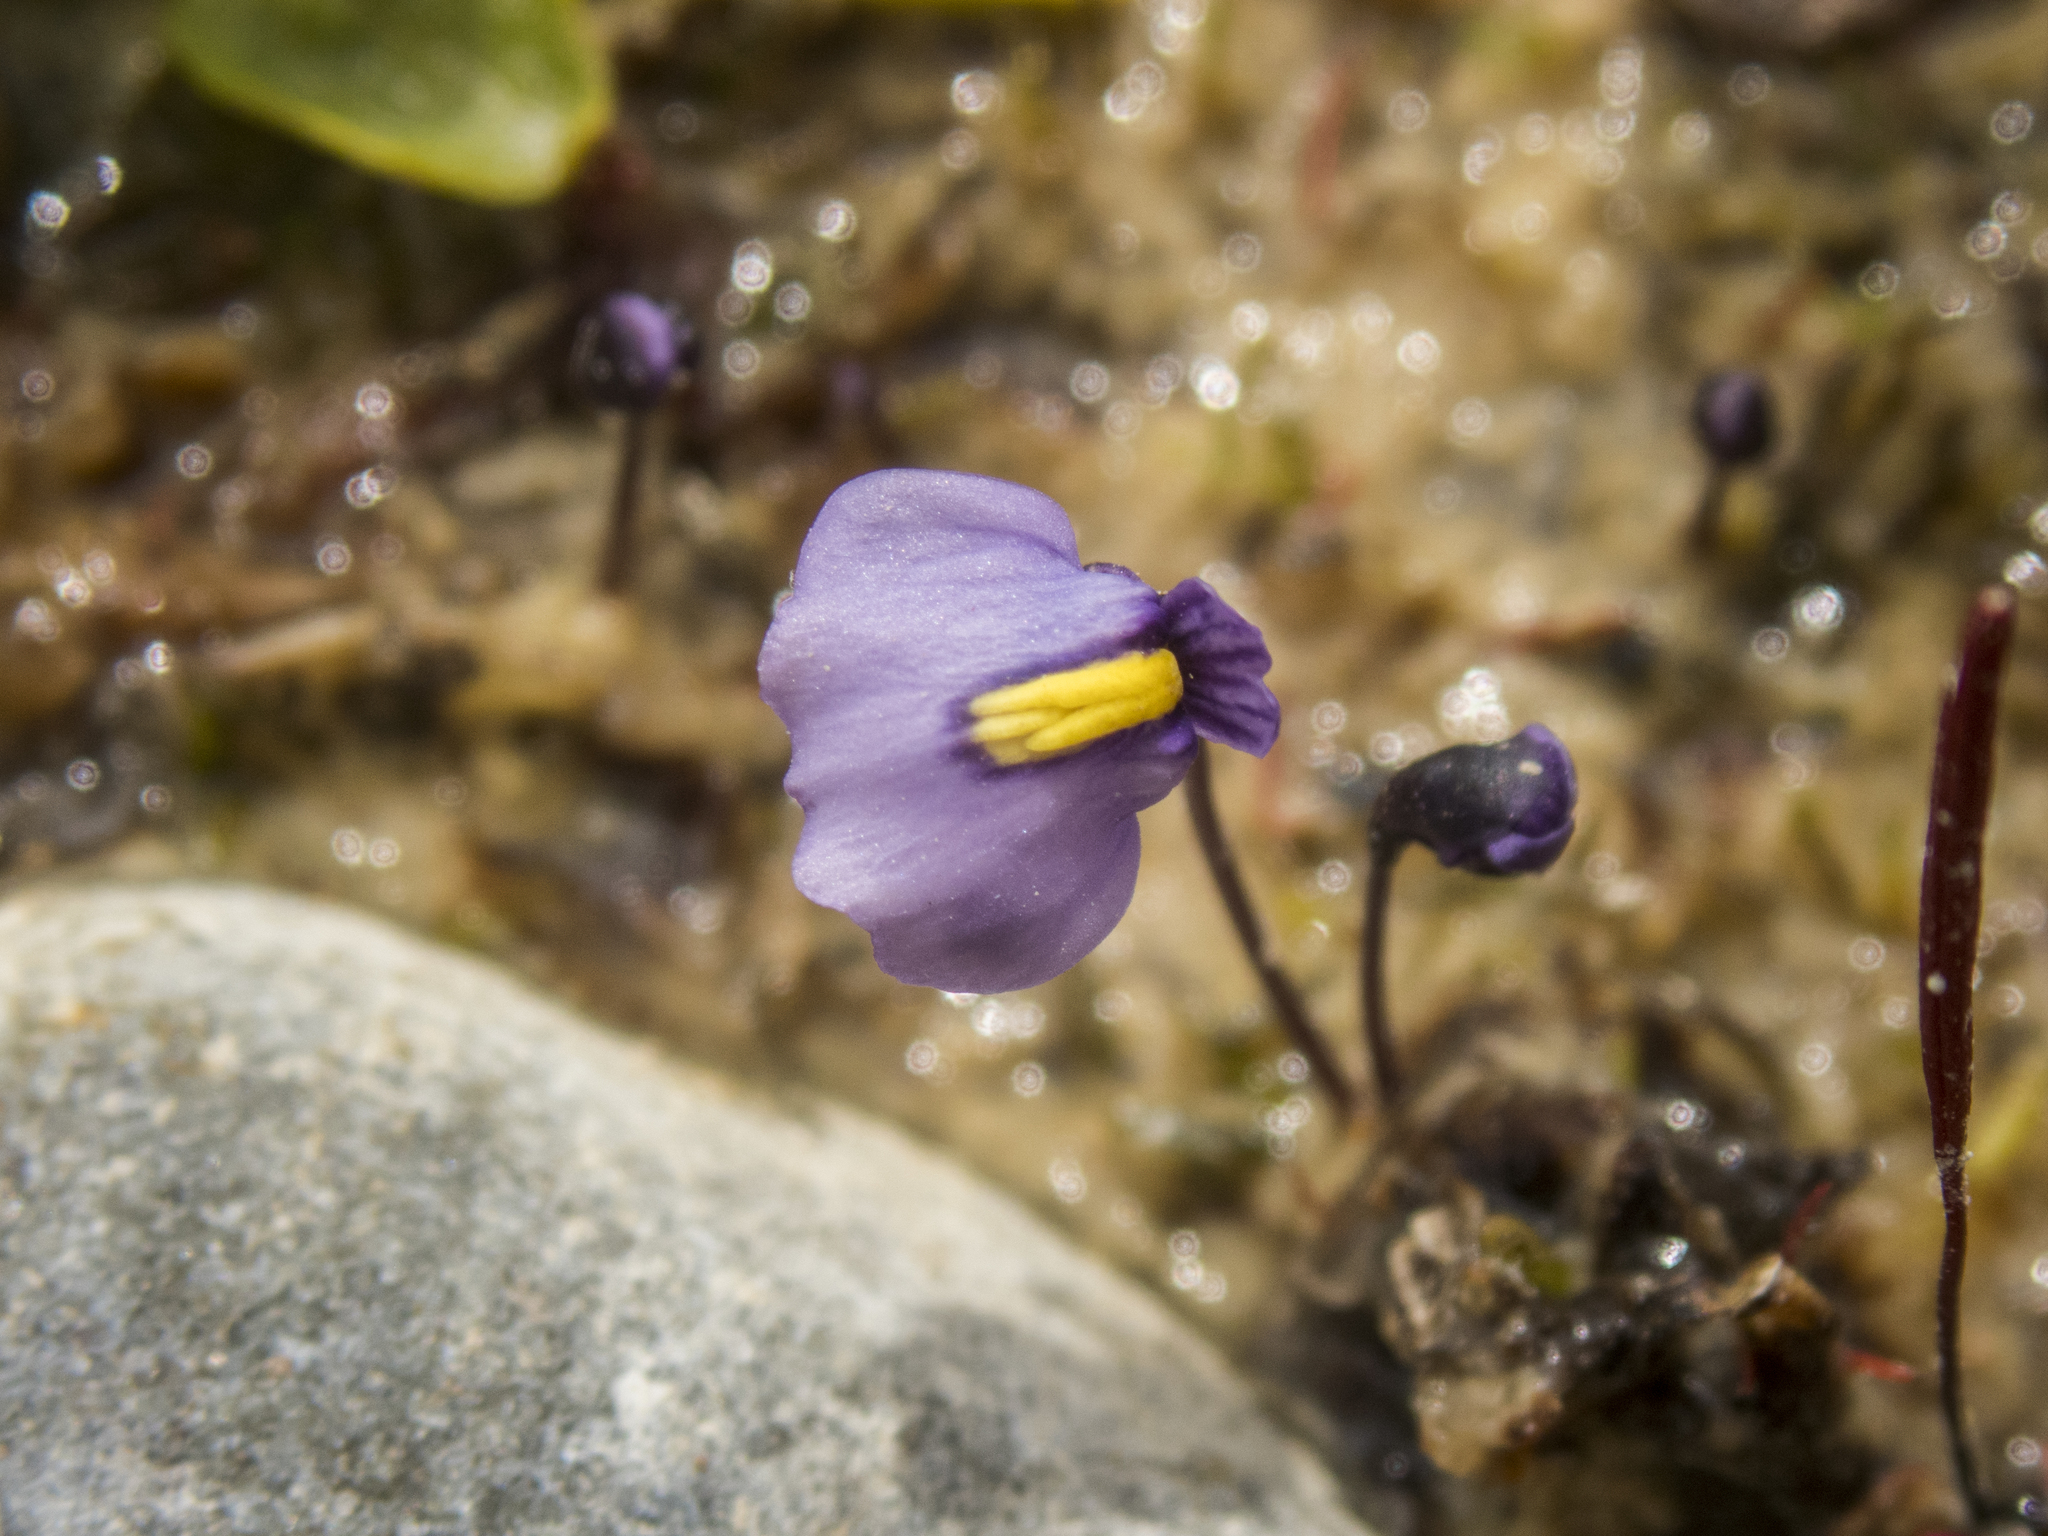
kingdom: Plantae
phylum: Tracheophyta
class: Magnoliopsida
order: Lamiales
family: Lentibulariaceae
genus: Utricularia
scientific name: Utricularia dichotoma
